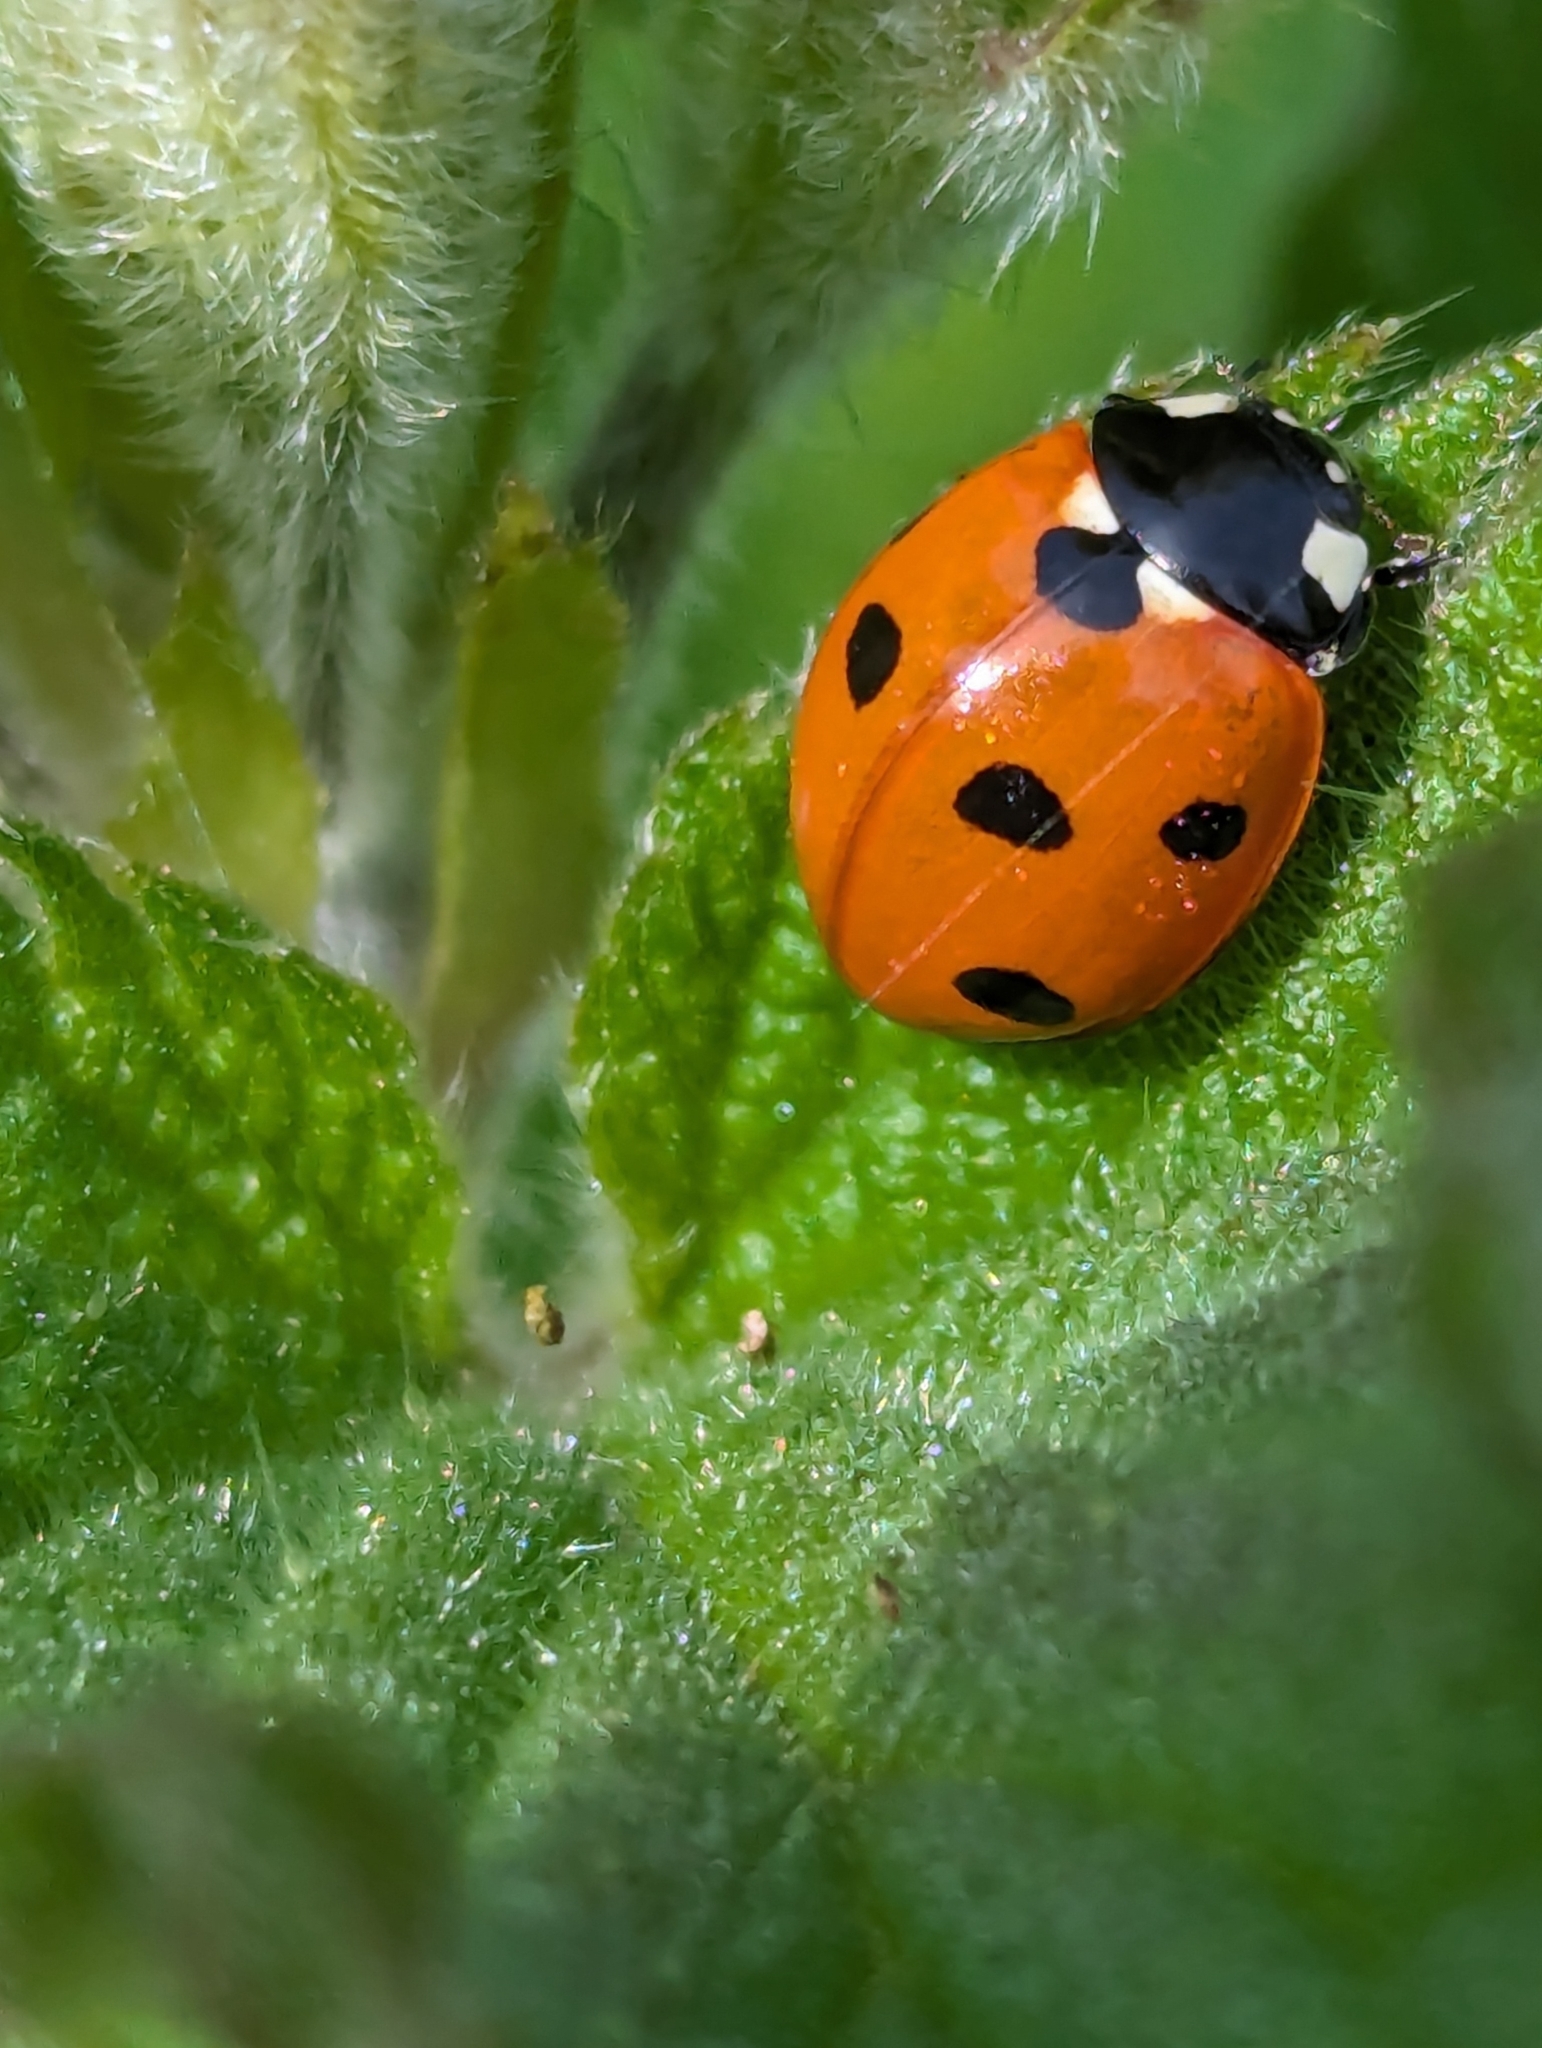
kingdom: Animalia
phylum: Arthropoda
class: Insecta
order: Coleoptera
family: Coccinellidae
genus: Coccinella
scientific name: Coccinella septempunctata
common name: Sevenspotted lady beetle
